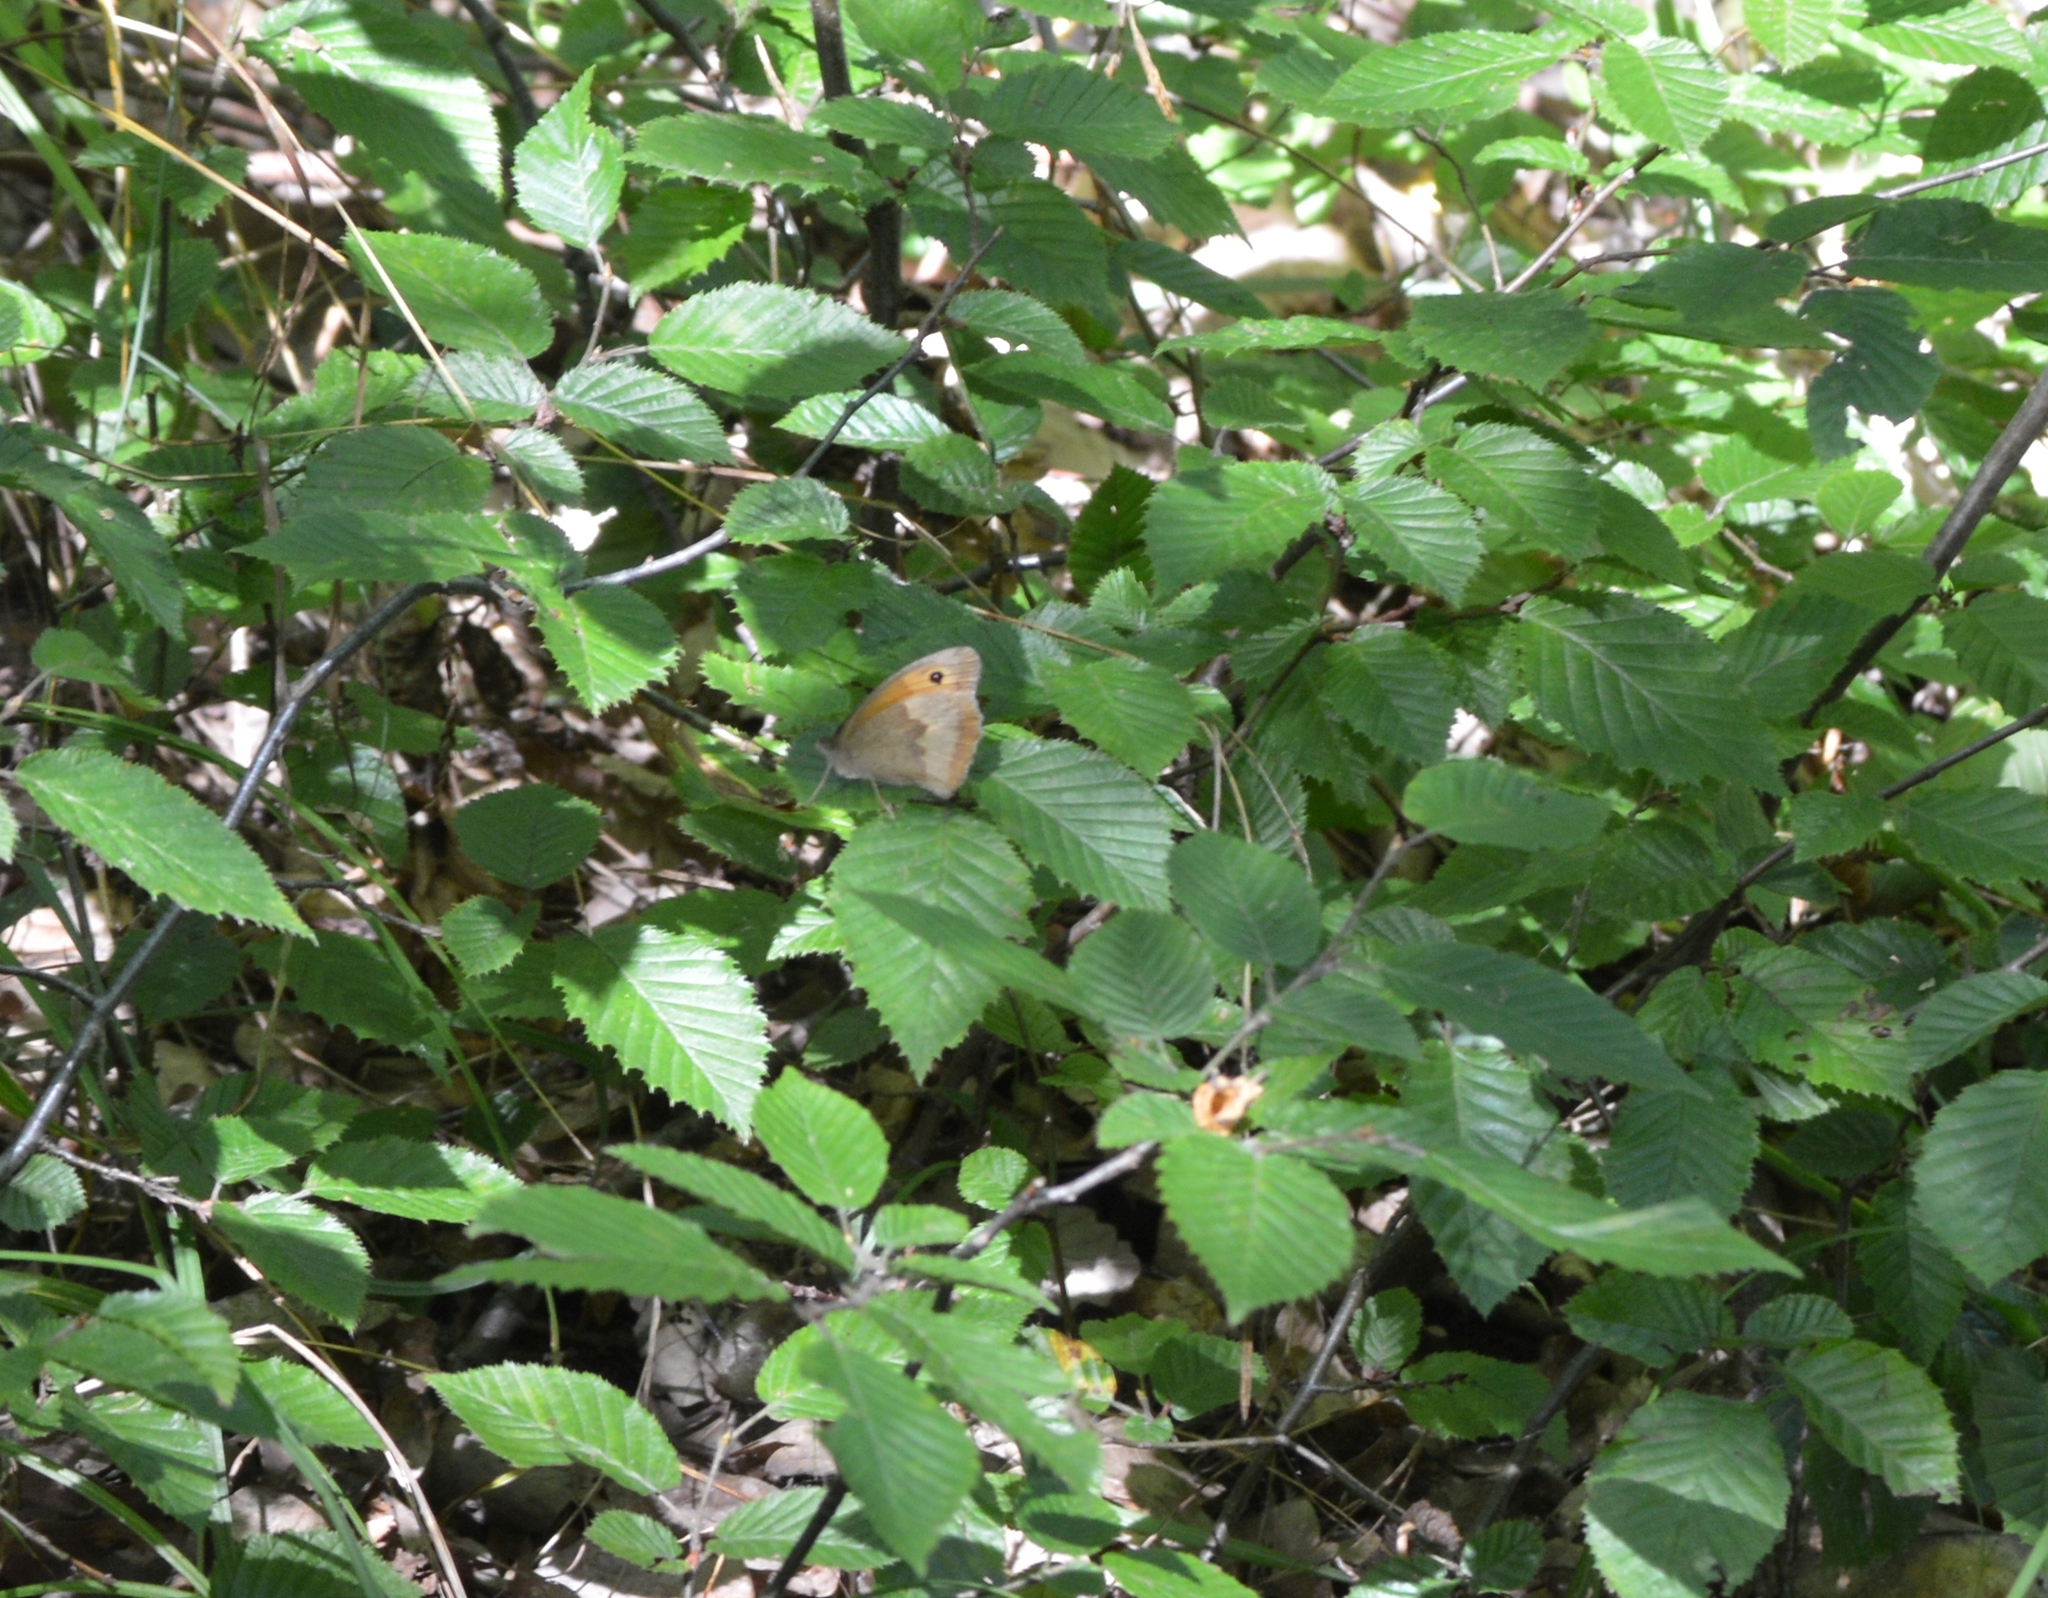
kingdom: Animalia
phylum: Arthropoda
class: Insecta
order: Lepidoptera
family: Nymphalidae
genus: Maniola
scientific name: Maniola jurtina
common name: Meadow brown
